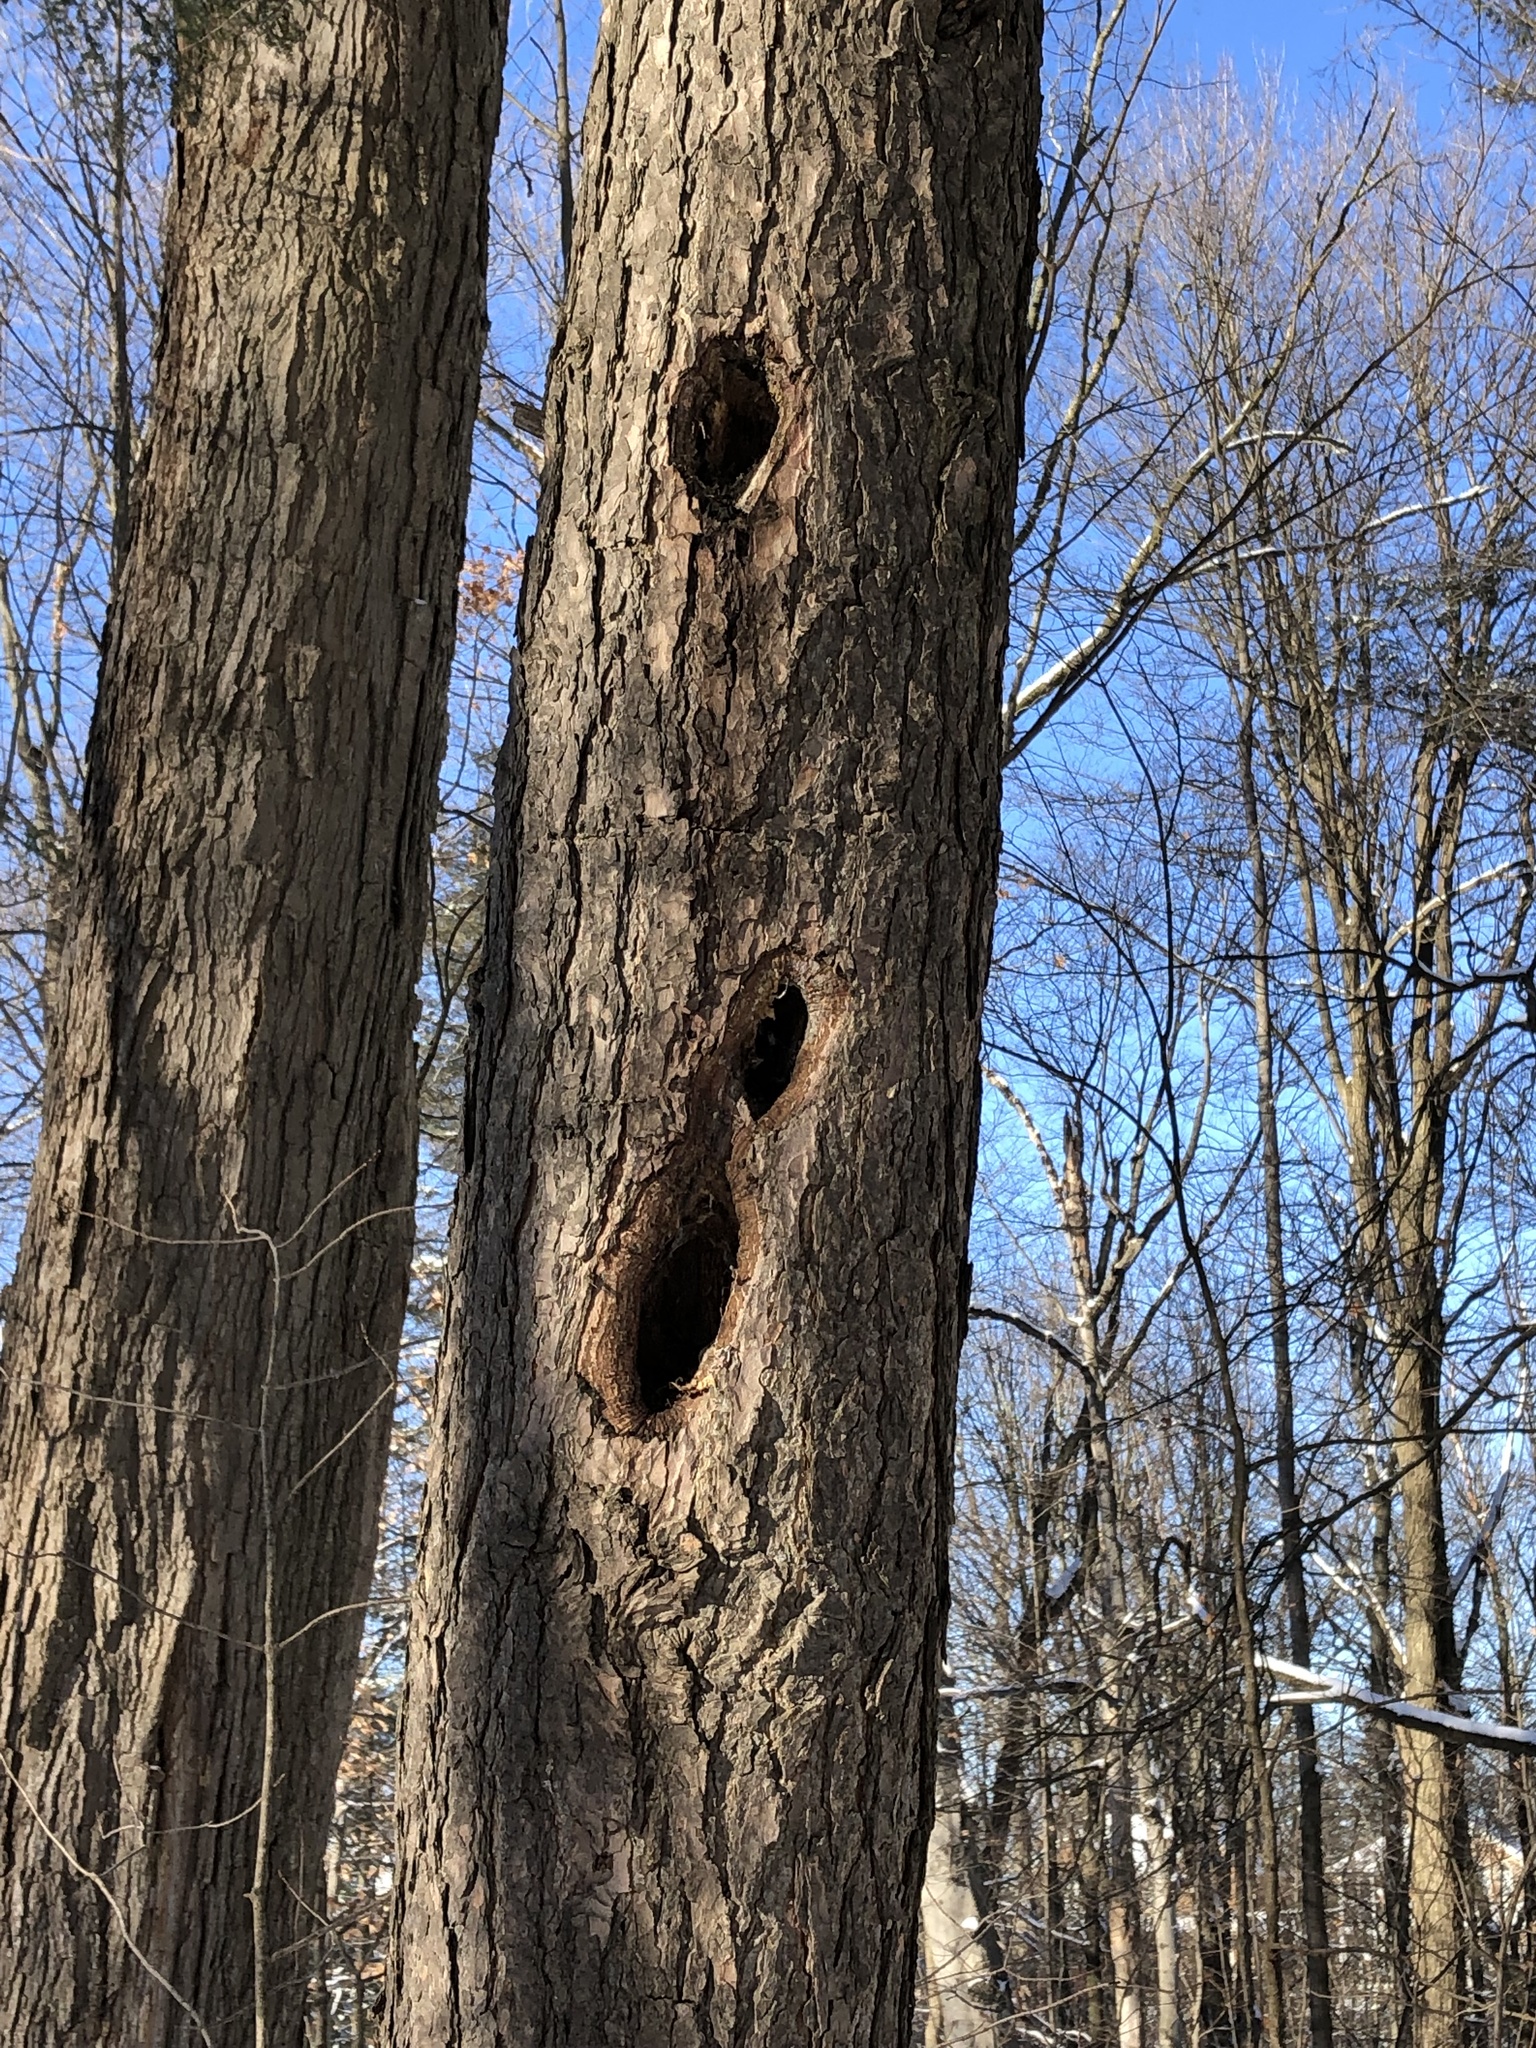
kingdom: Animalia
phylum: Chordata
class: Aves
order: Piciformes
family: Picidae
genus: Dryocopus
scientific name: Dryocopus pileatus
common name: Pileated woodpecker
